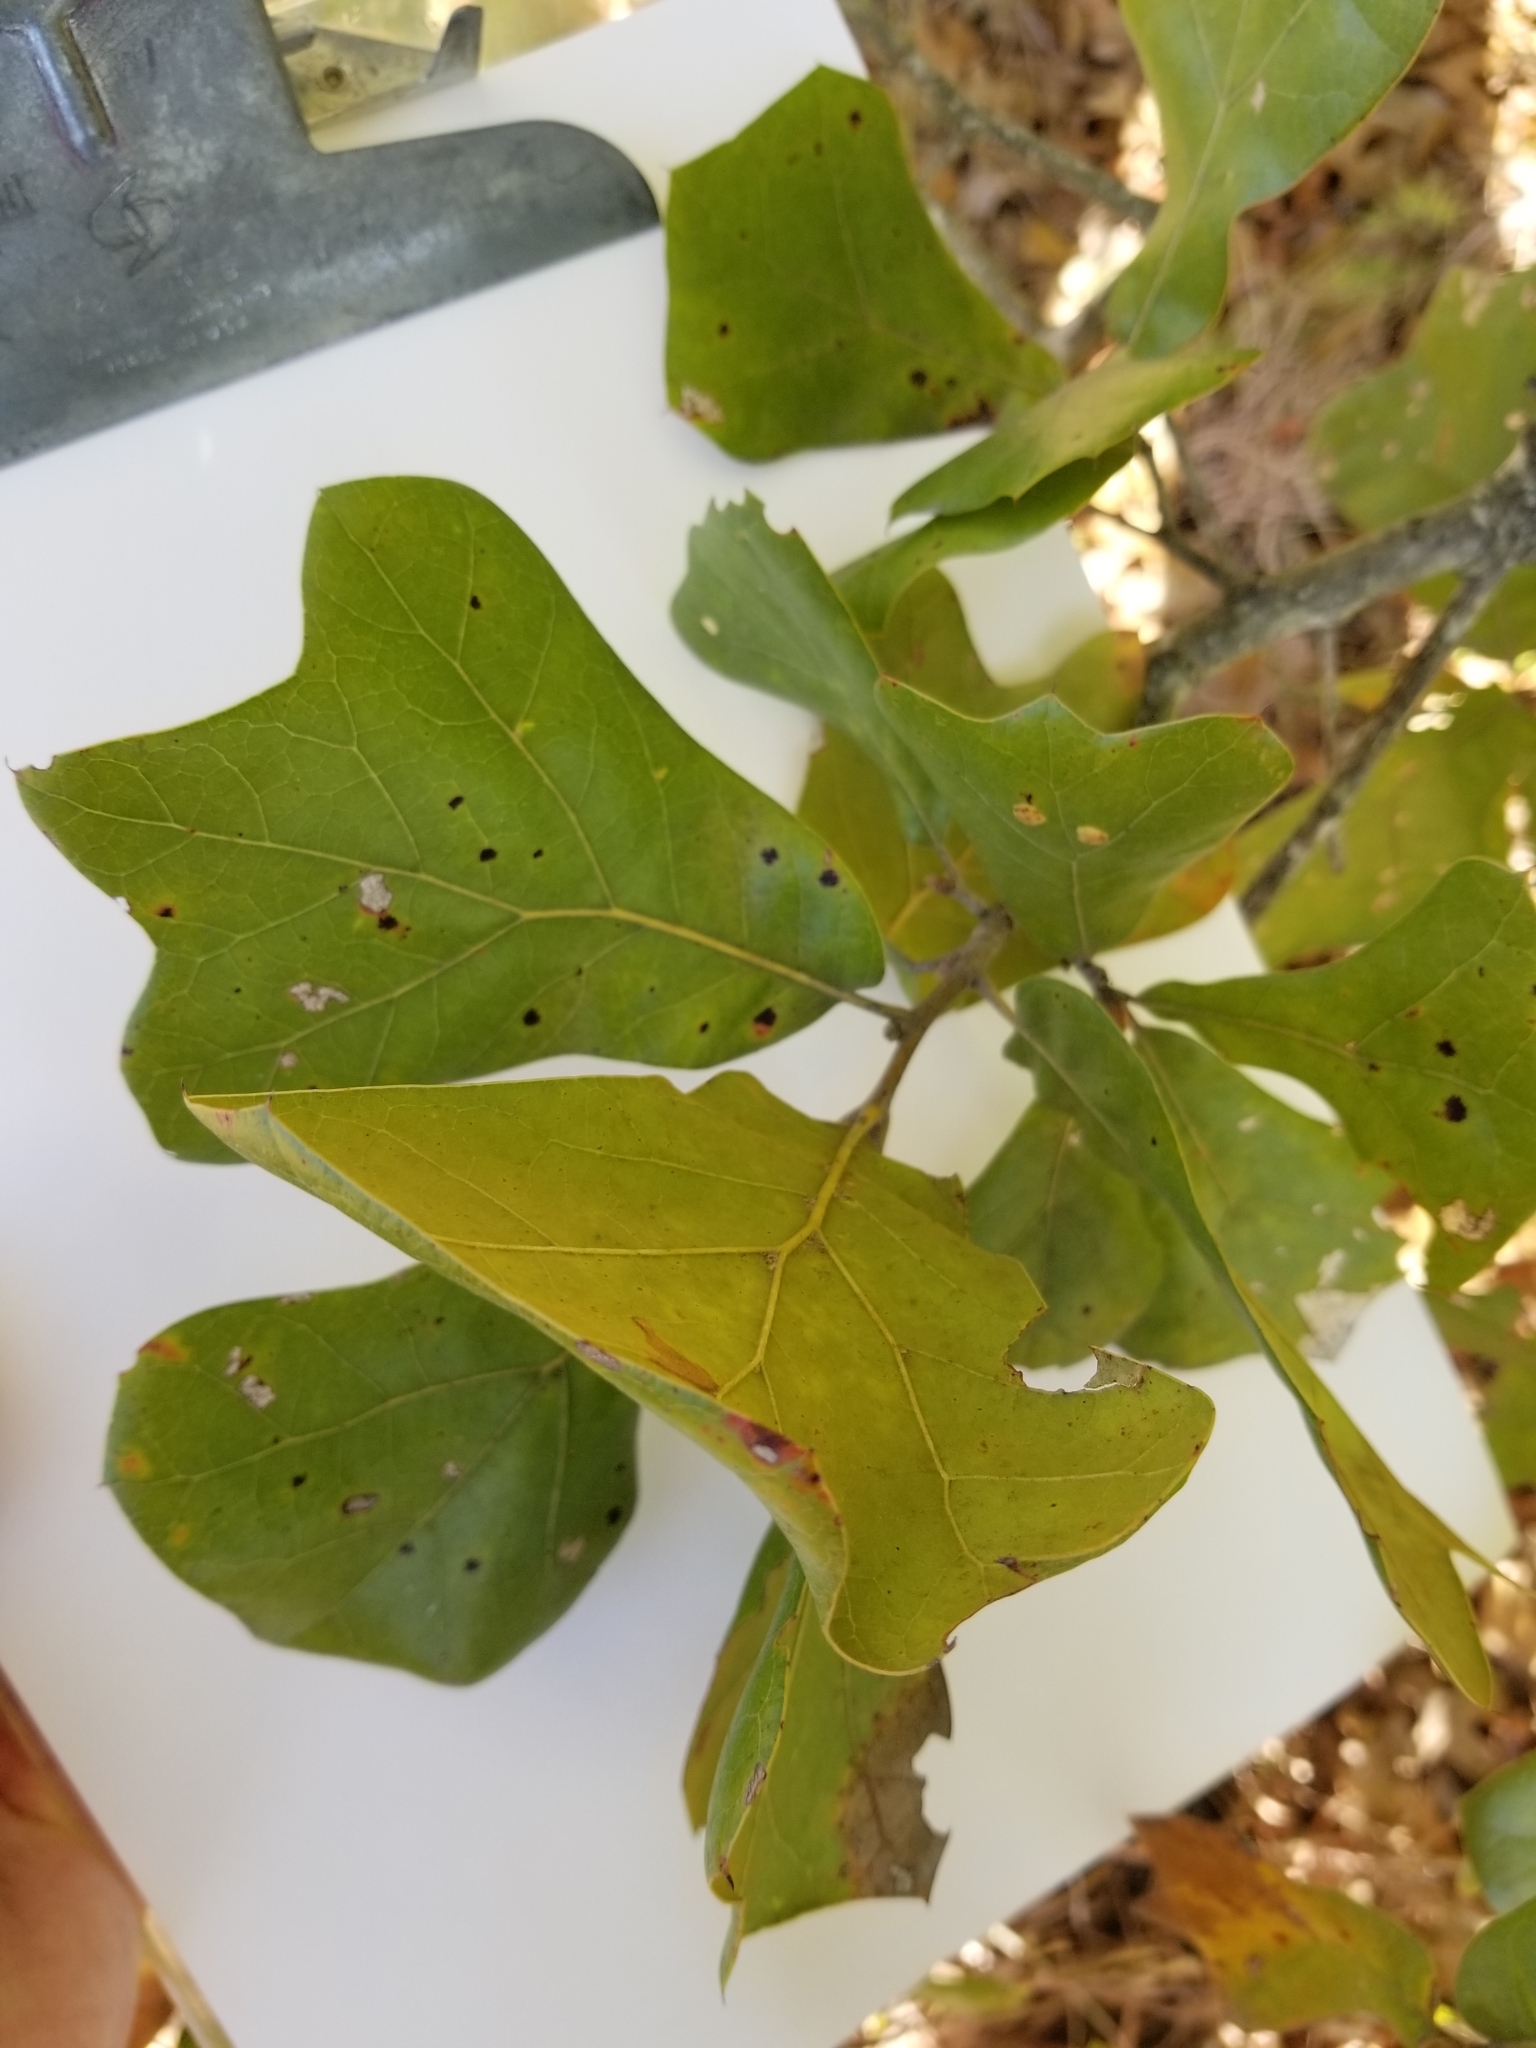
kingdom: Plantae
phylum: Tracheophyta
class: Magnoliopsida
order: Fagales
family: Fagaceae
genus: Quercus
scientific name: Quercus marilandica
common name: Blackjack oak
